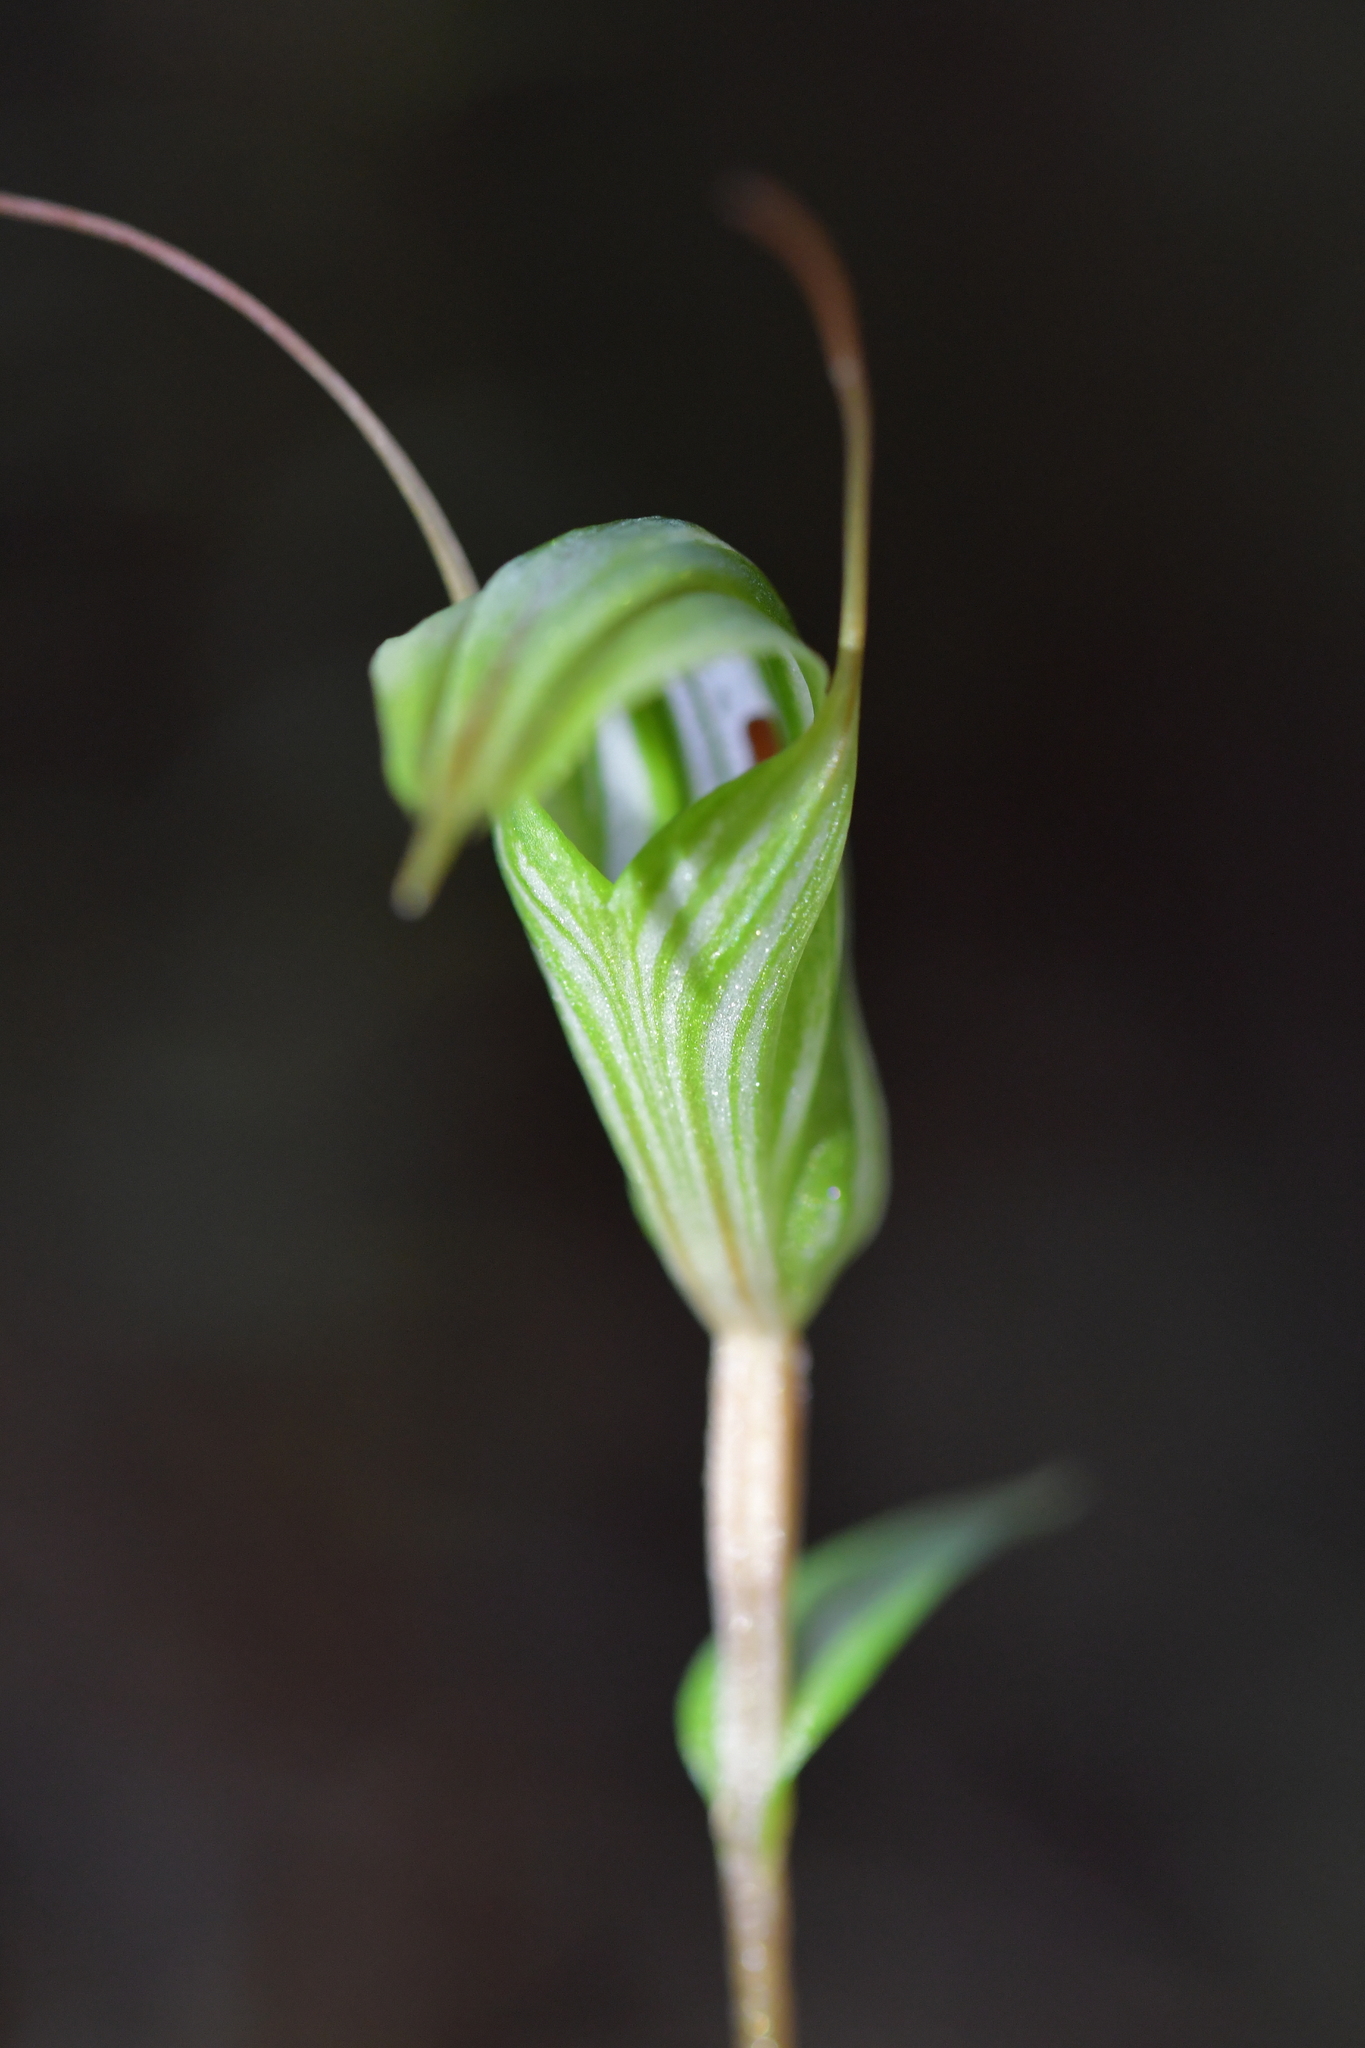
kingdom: Plantae
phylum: Tracheophyta
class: Liliopsida
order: Asparagales
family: Orchidaceae
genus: Pterostylis
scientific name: Pterostylis alobula
